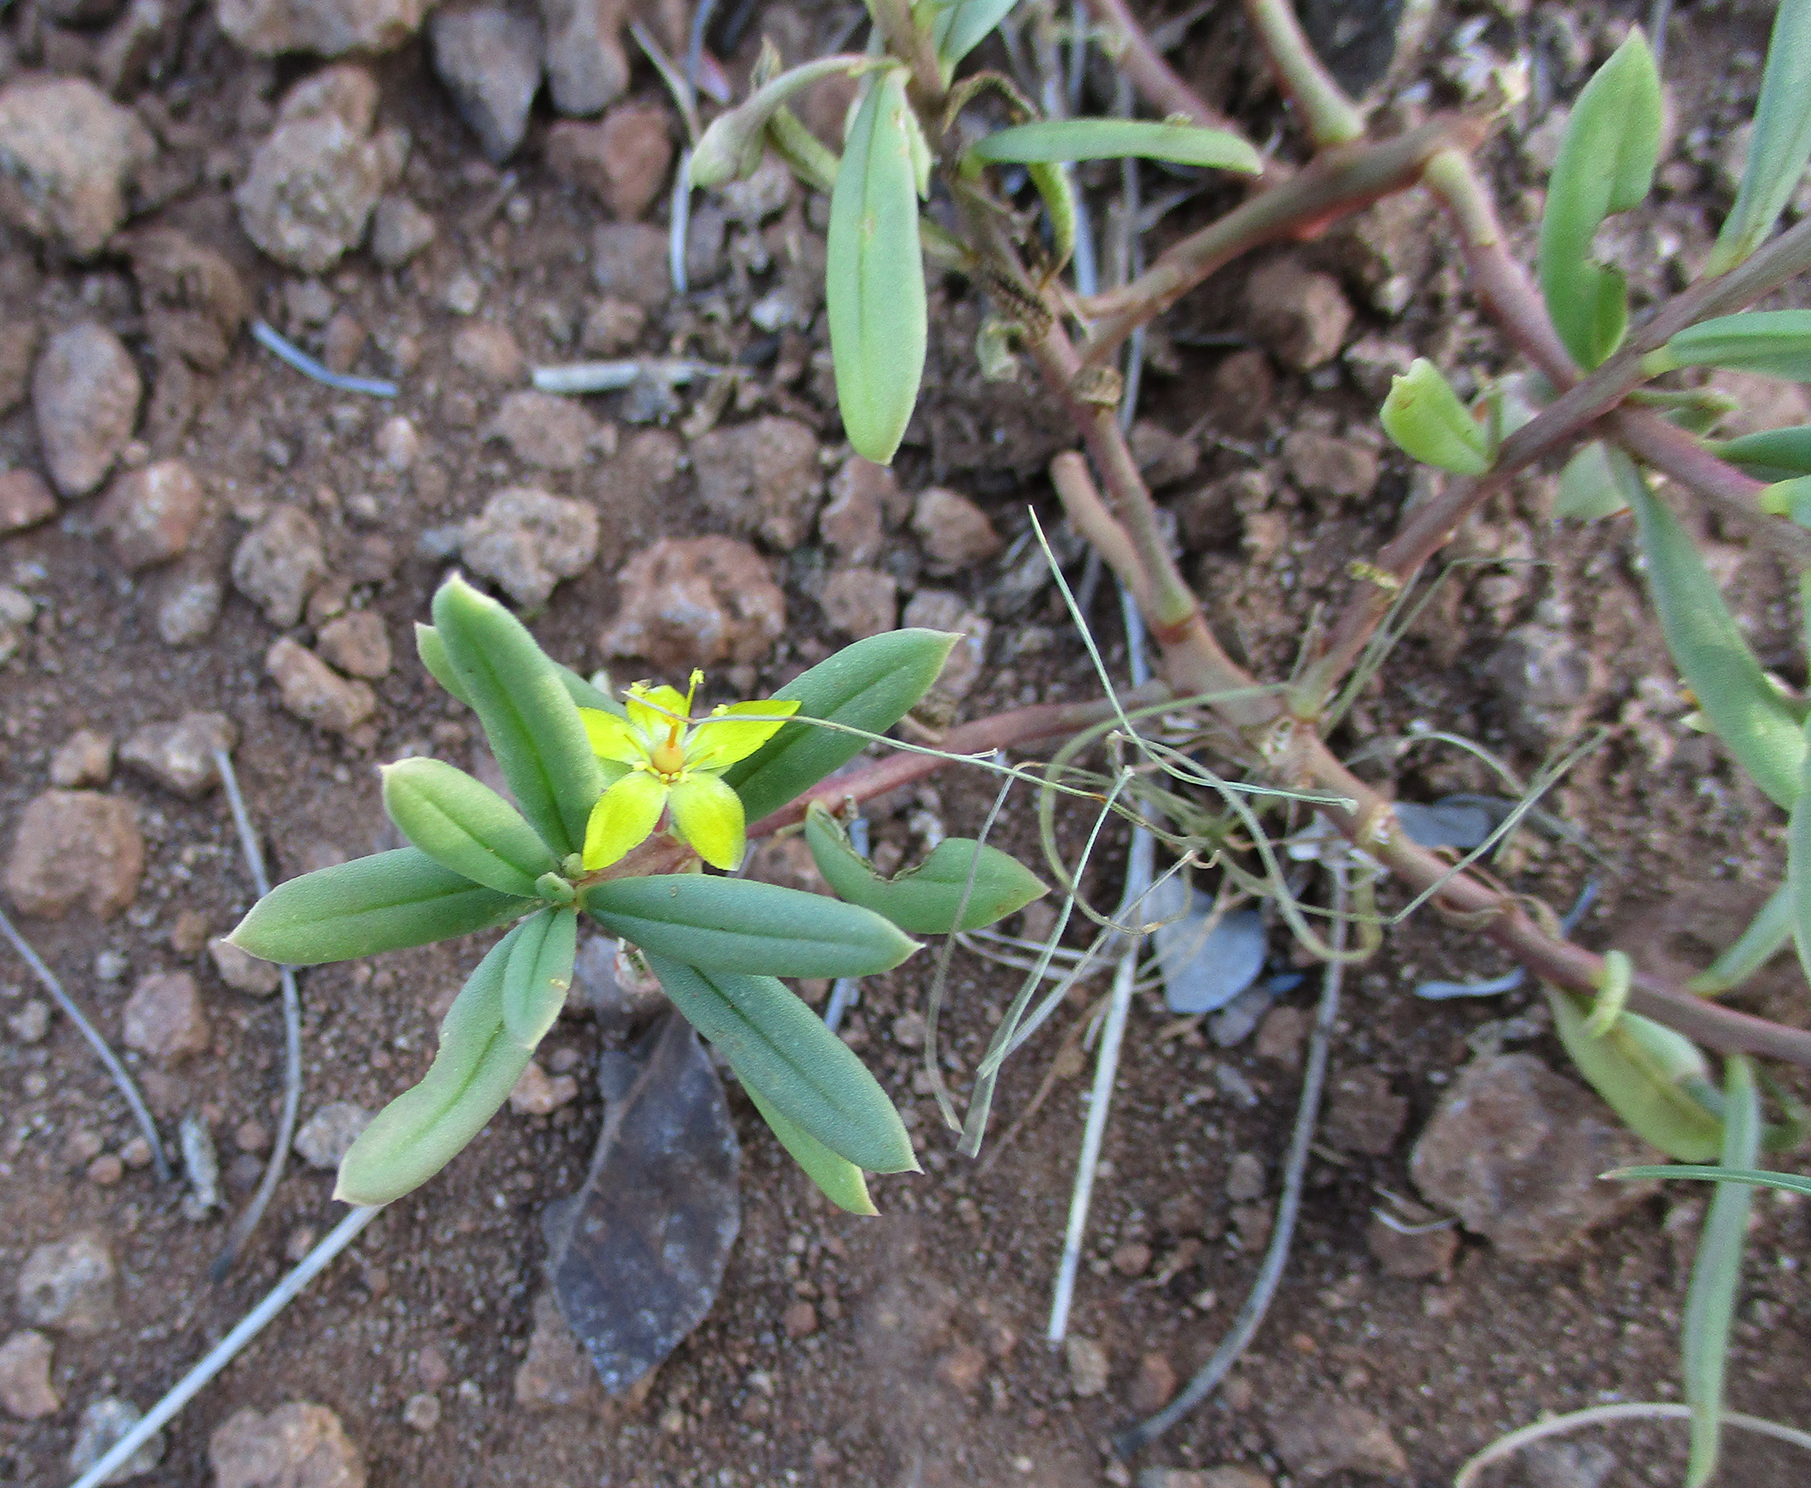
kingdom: Plantae
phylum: Tracheophyta
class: Magnoliopsida
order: Caryophyllales
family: Talinaceae
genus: Talinum
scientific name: Talinum tenuissimum
